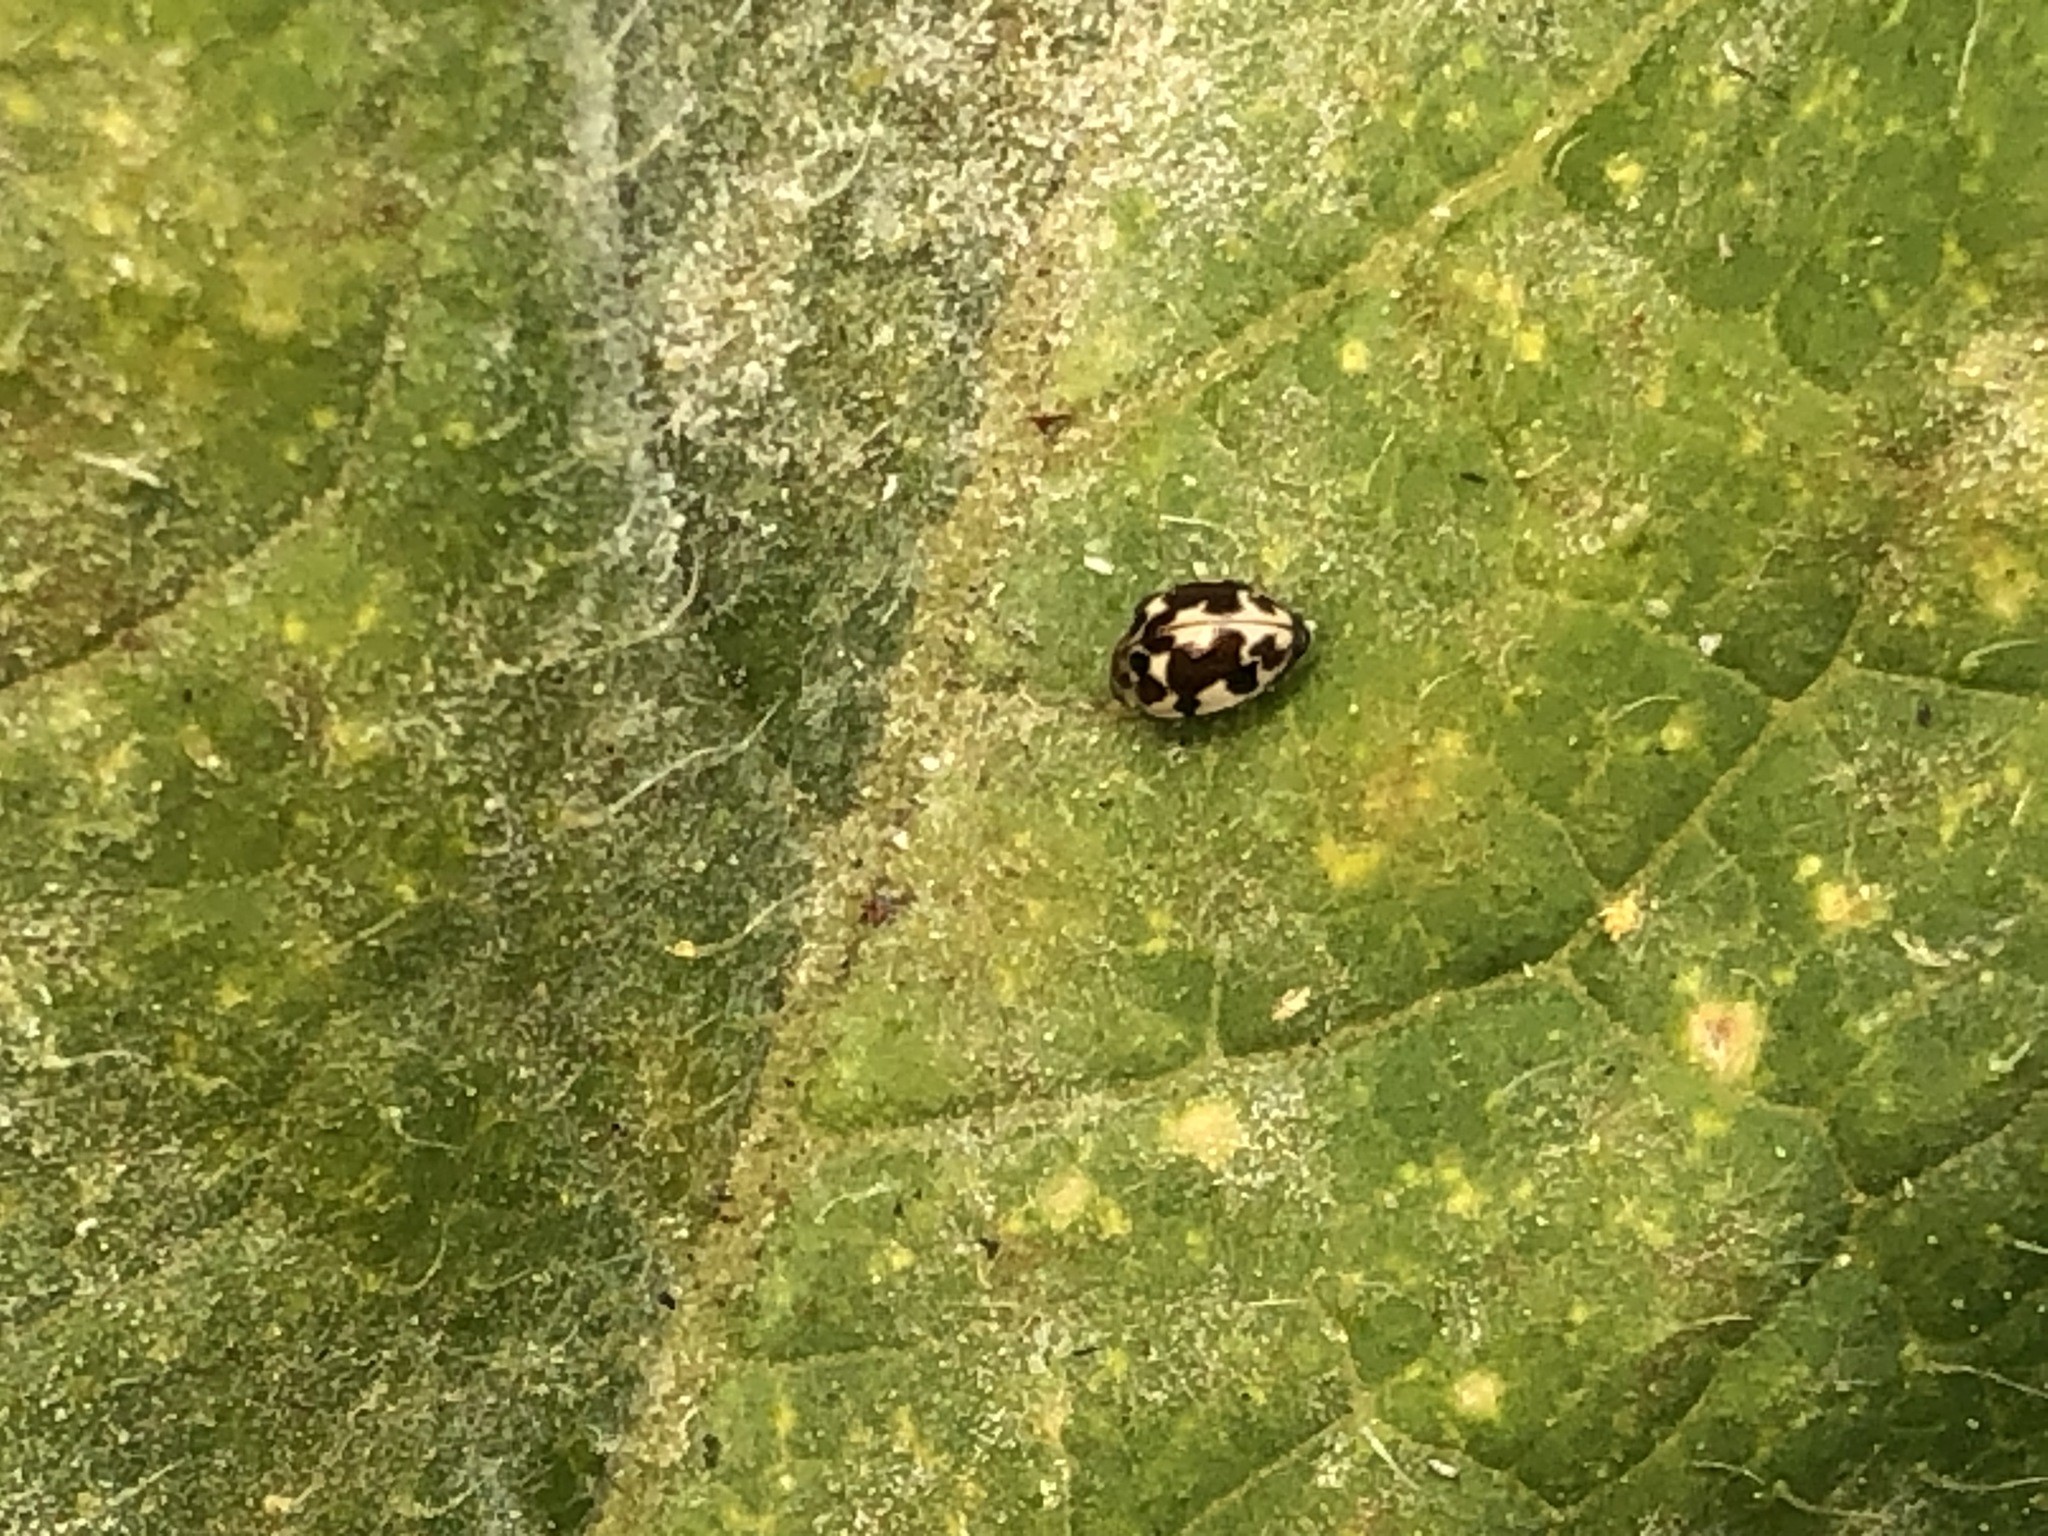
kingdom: Animalia
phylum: Arthropoda
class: Insecta
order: Coleoptera
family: Coccinellidae
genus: Psyllobora
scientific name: Psyllobora vigintimaculata
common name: Ladybird beetle
